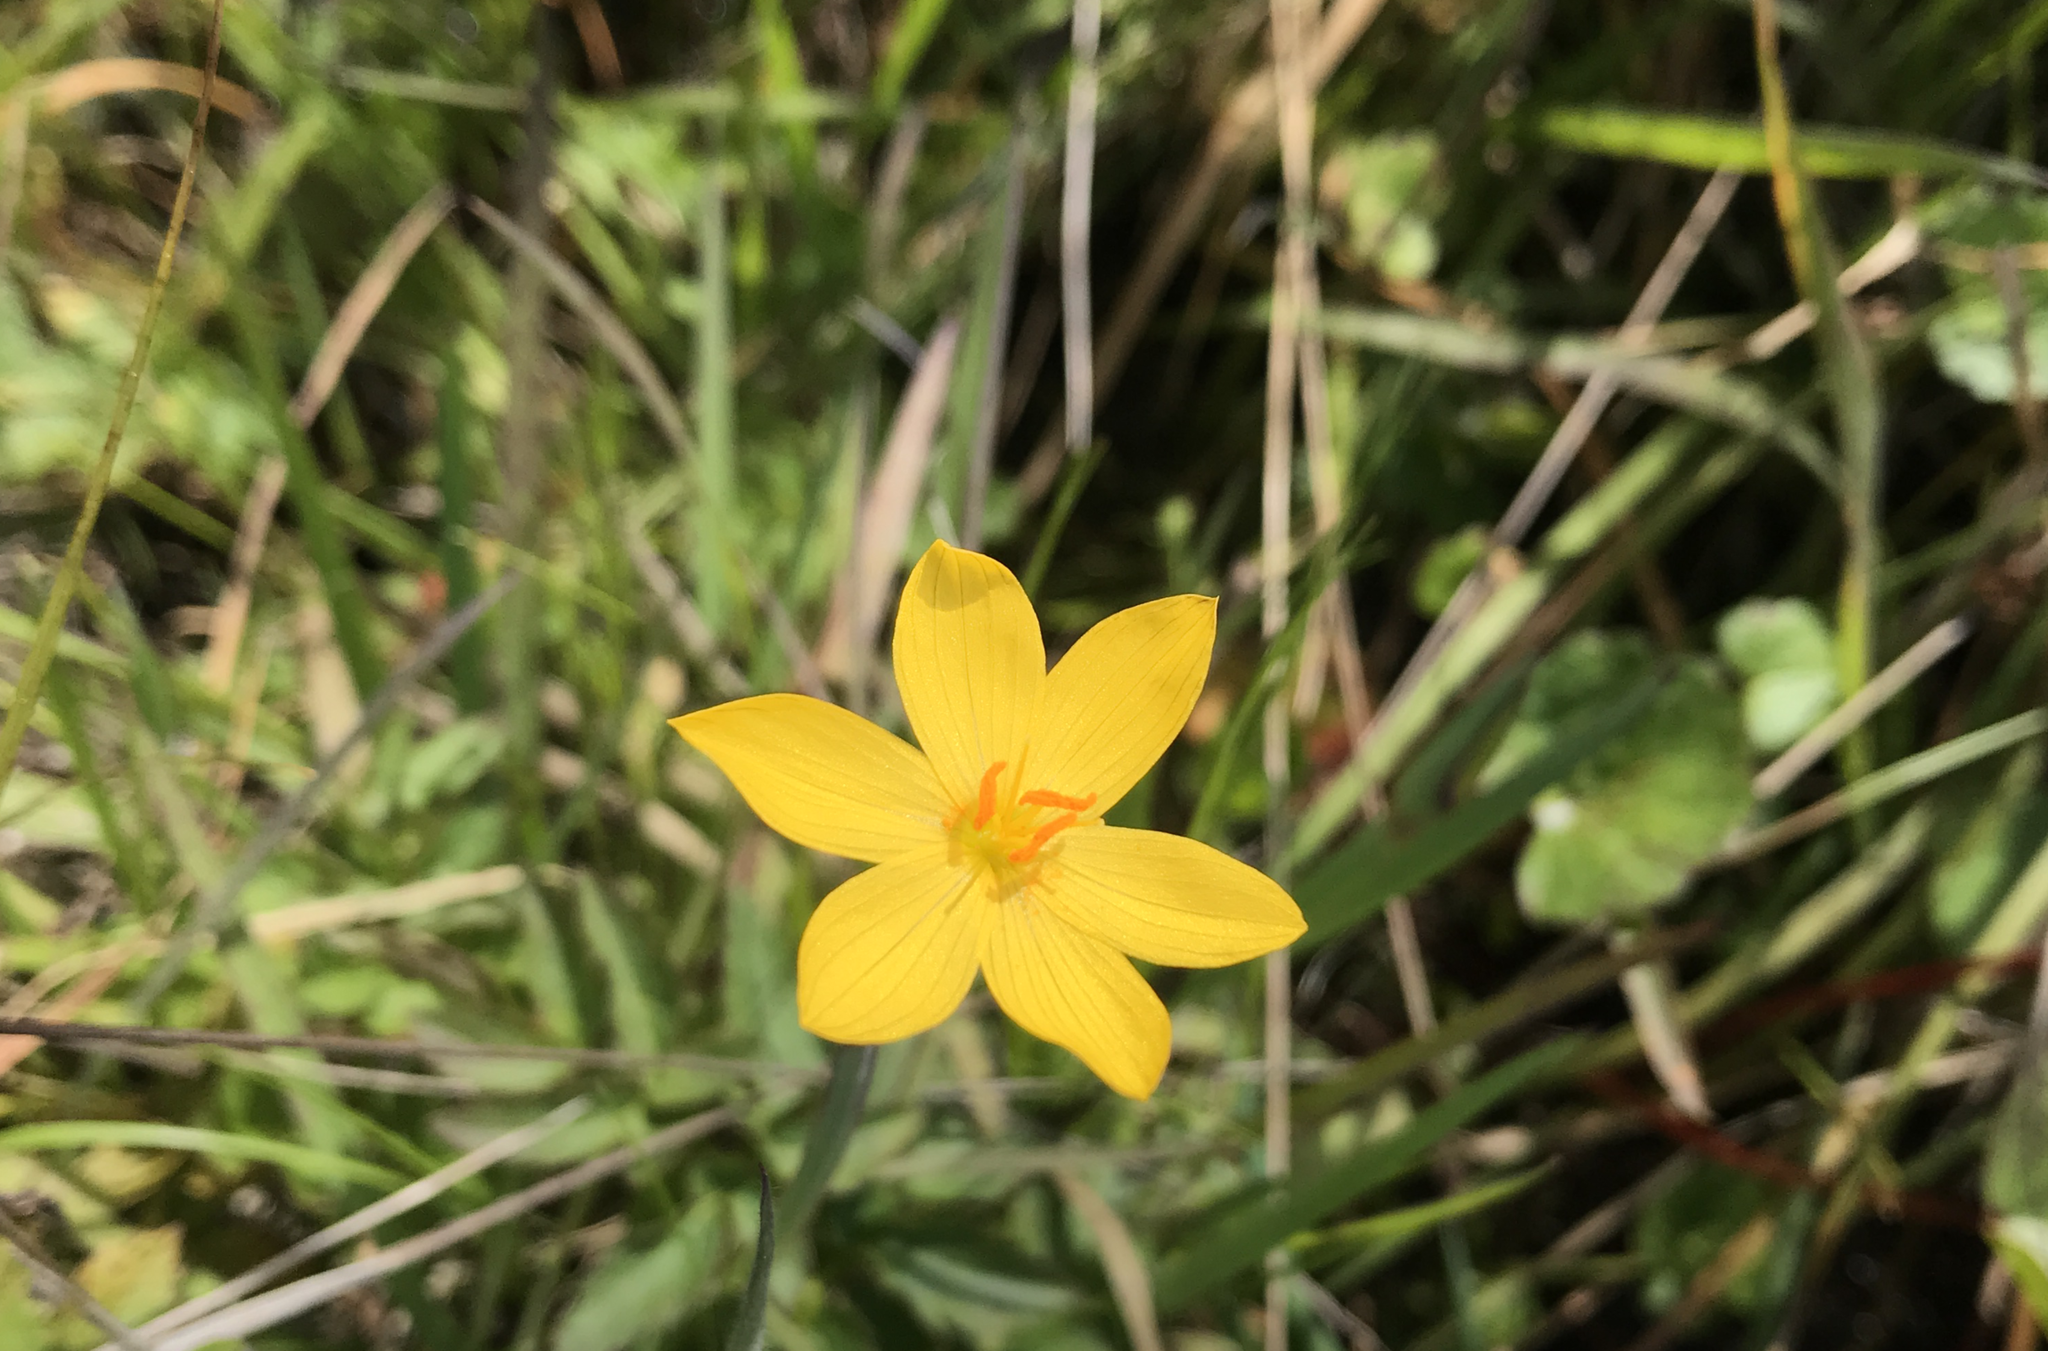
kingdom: Plantae
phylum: Tracheophyta
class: Liliopsida
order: Asparagales
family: Iridaceae
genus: Sisyrinchium
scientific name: Sisyrinchium californicum
